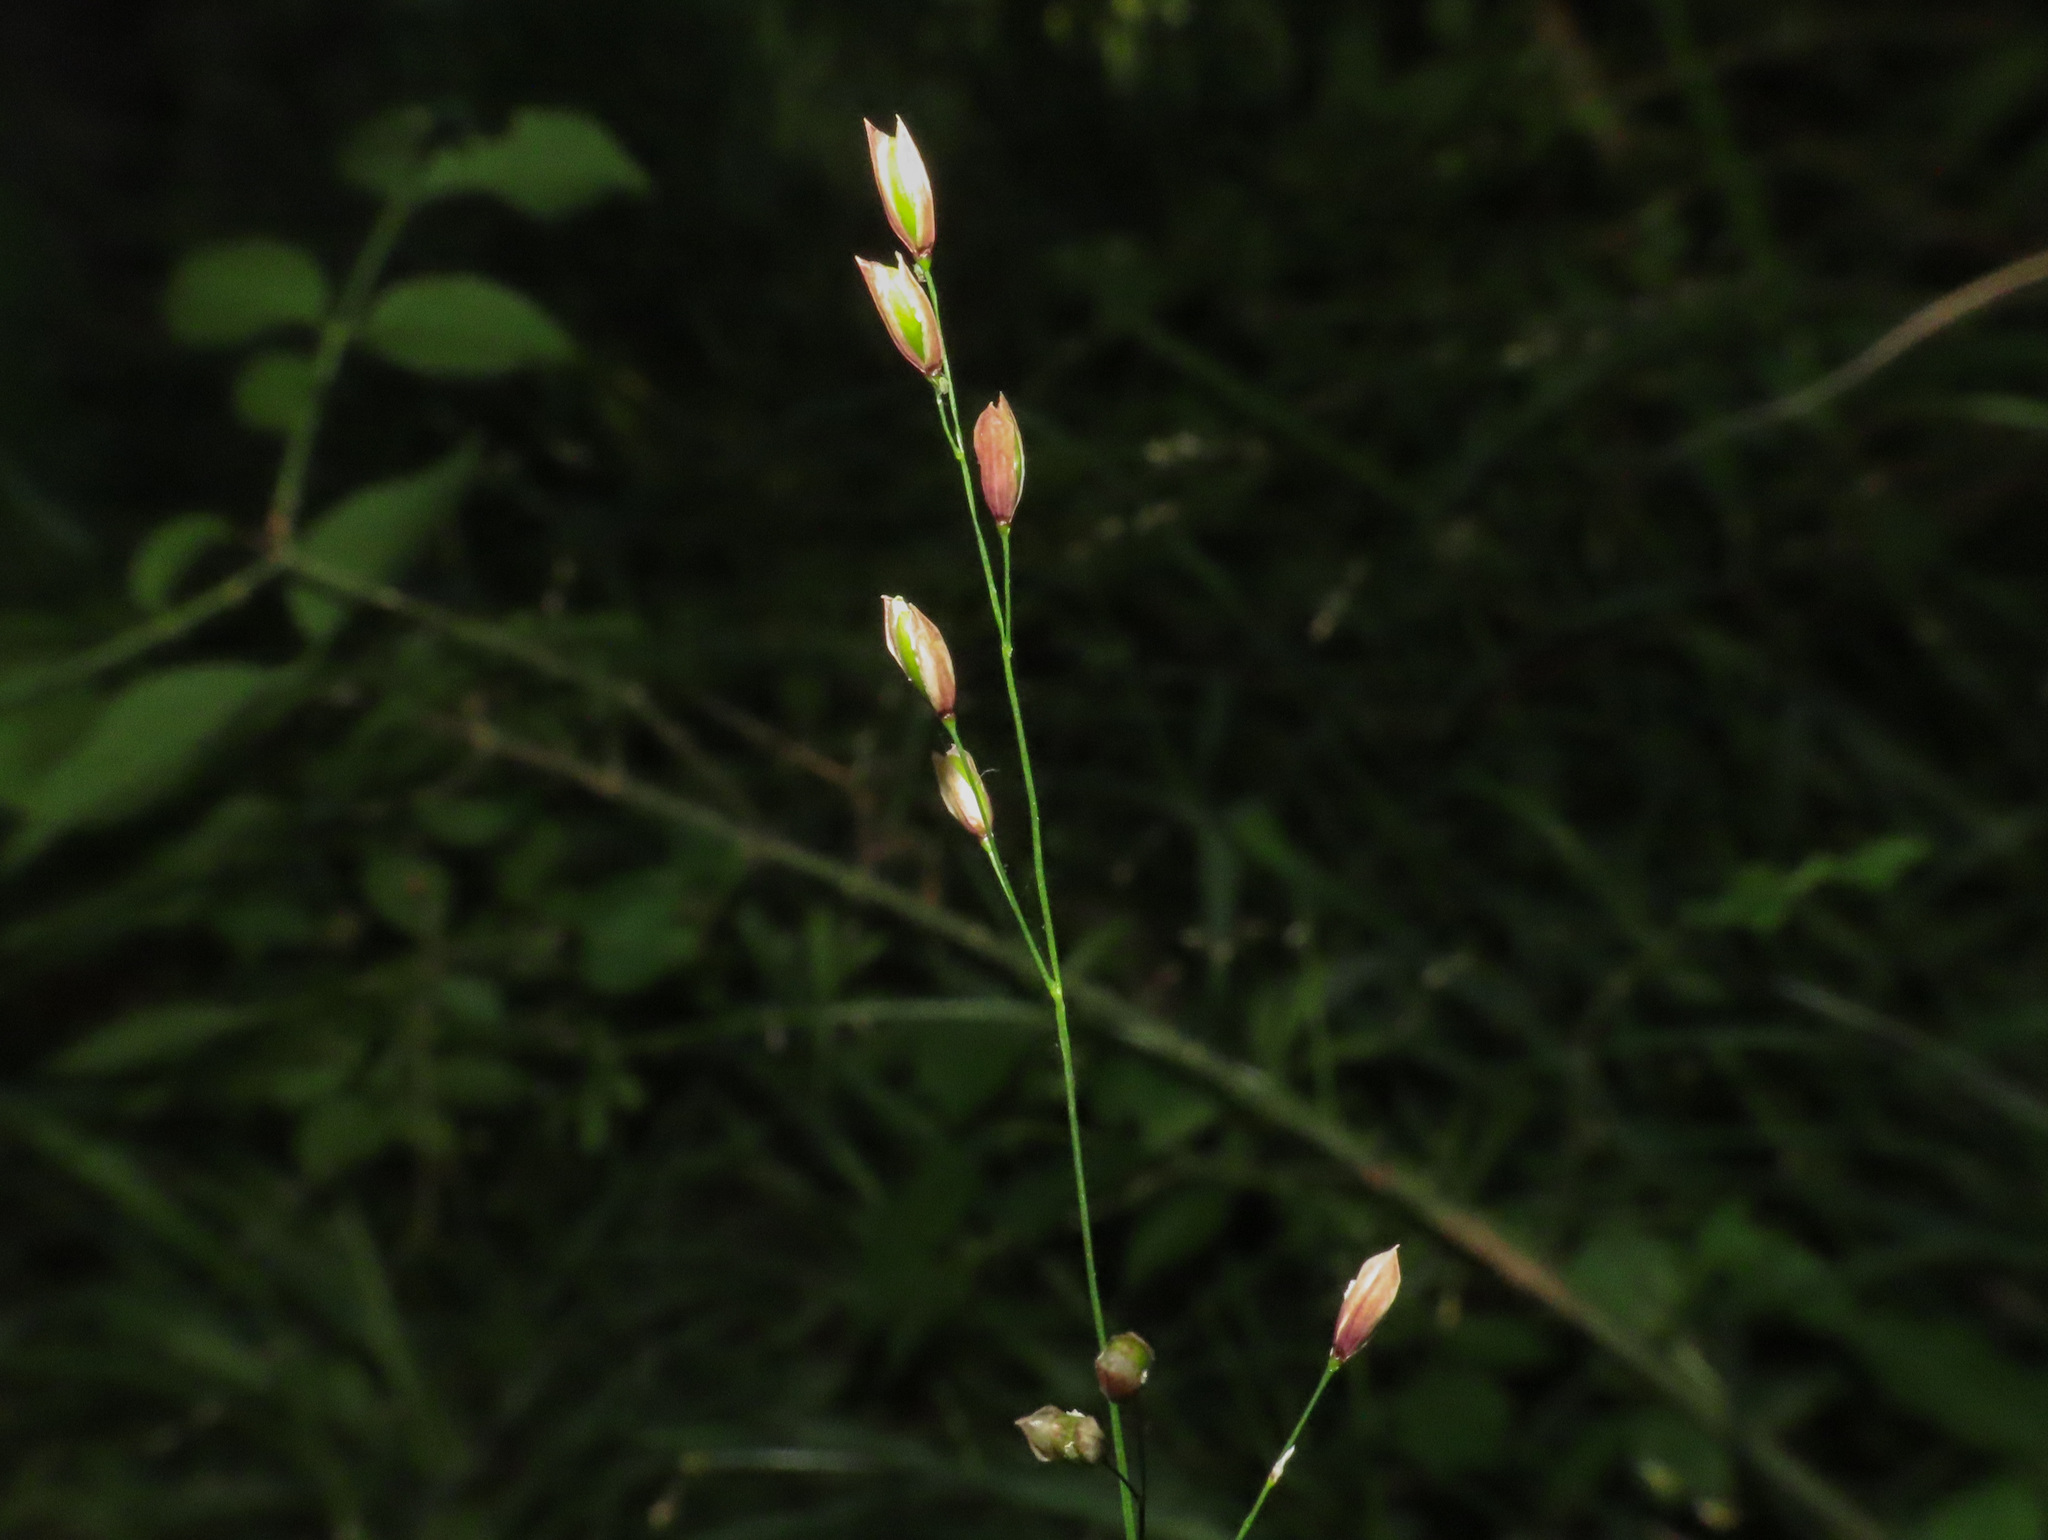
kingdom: Plantae
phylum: Tracheophyta
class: Liliopsida
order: Poales
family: Poaceae
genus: Melica
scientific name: Melica uniflora
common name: Wood melick
